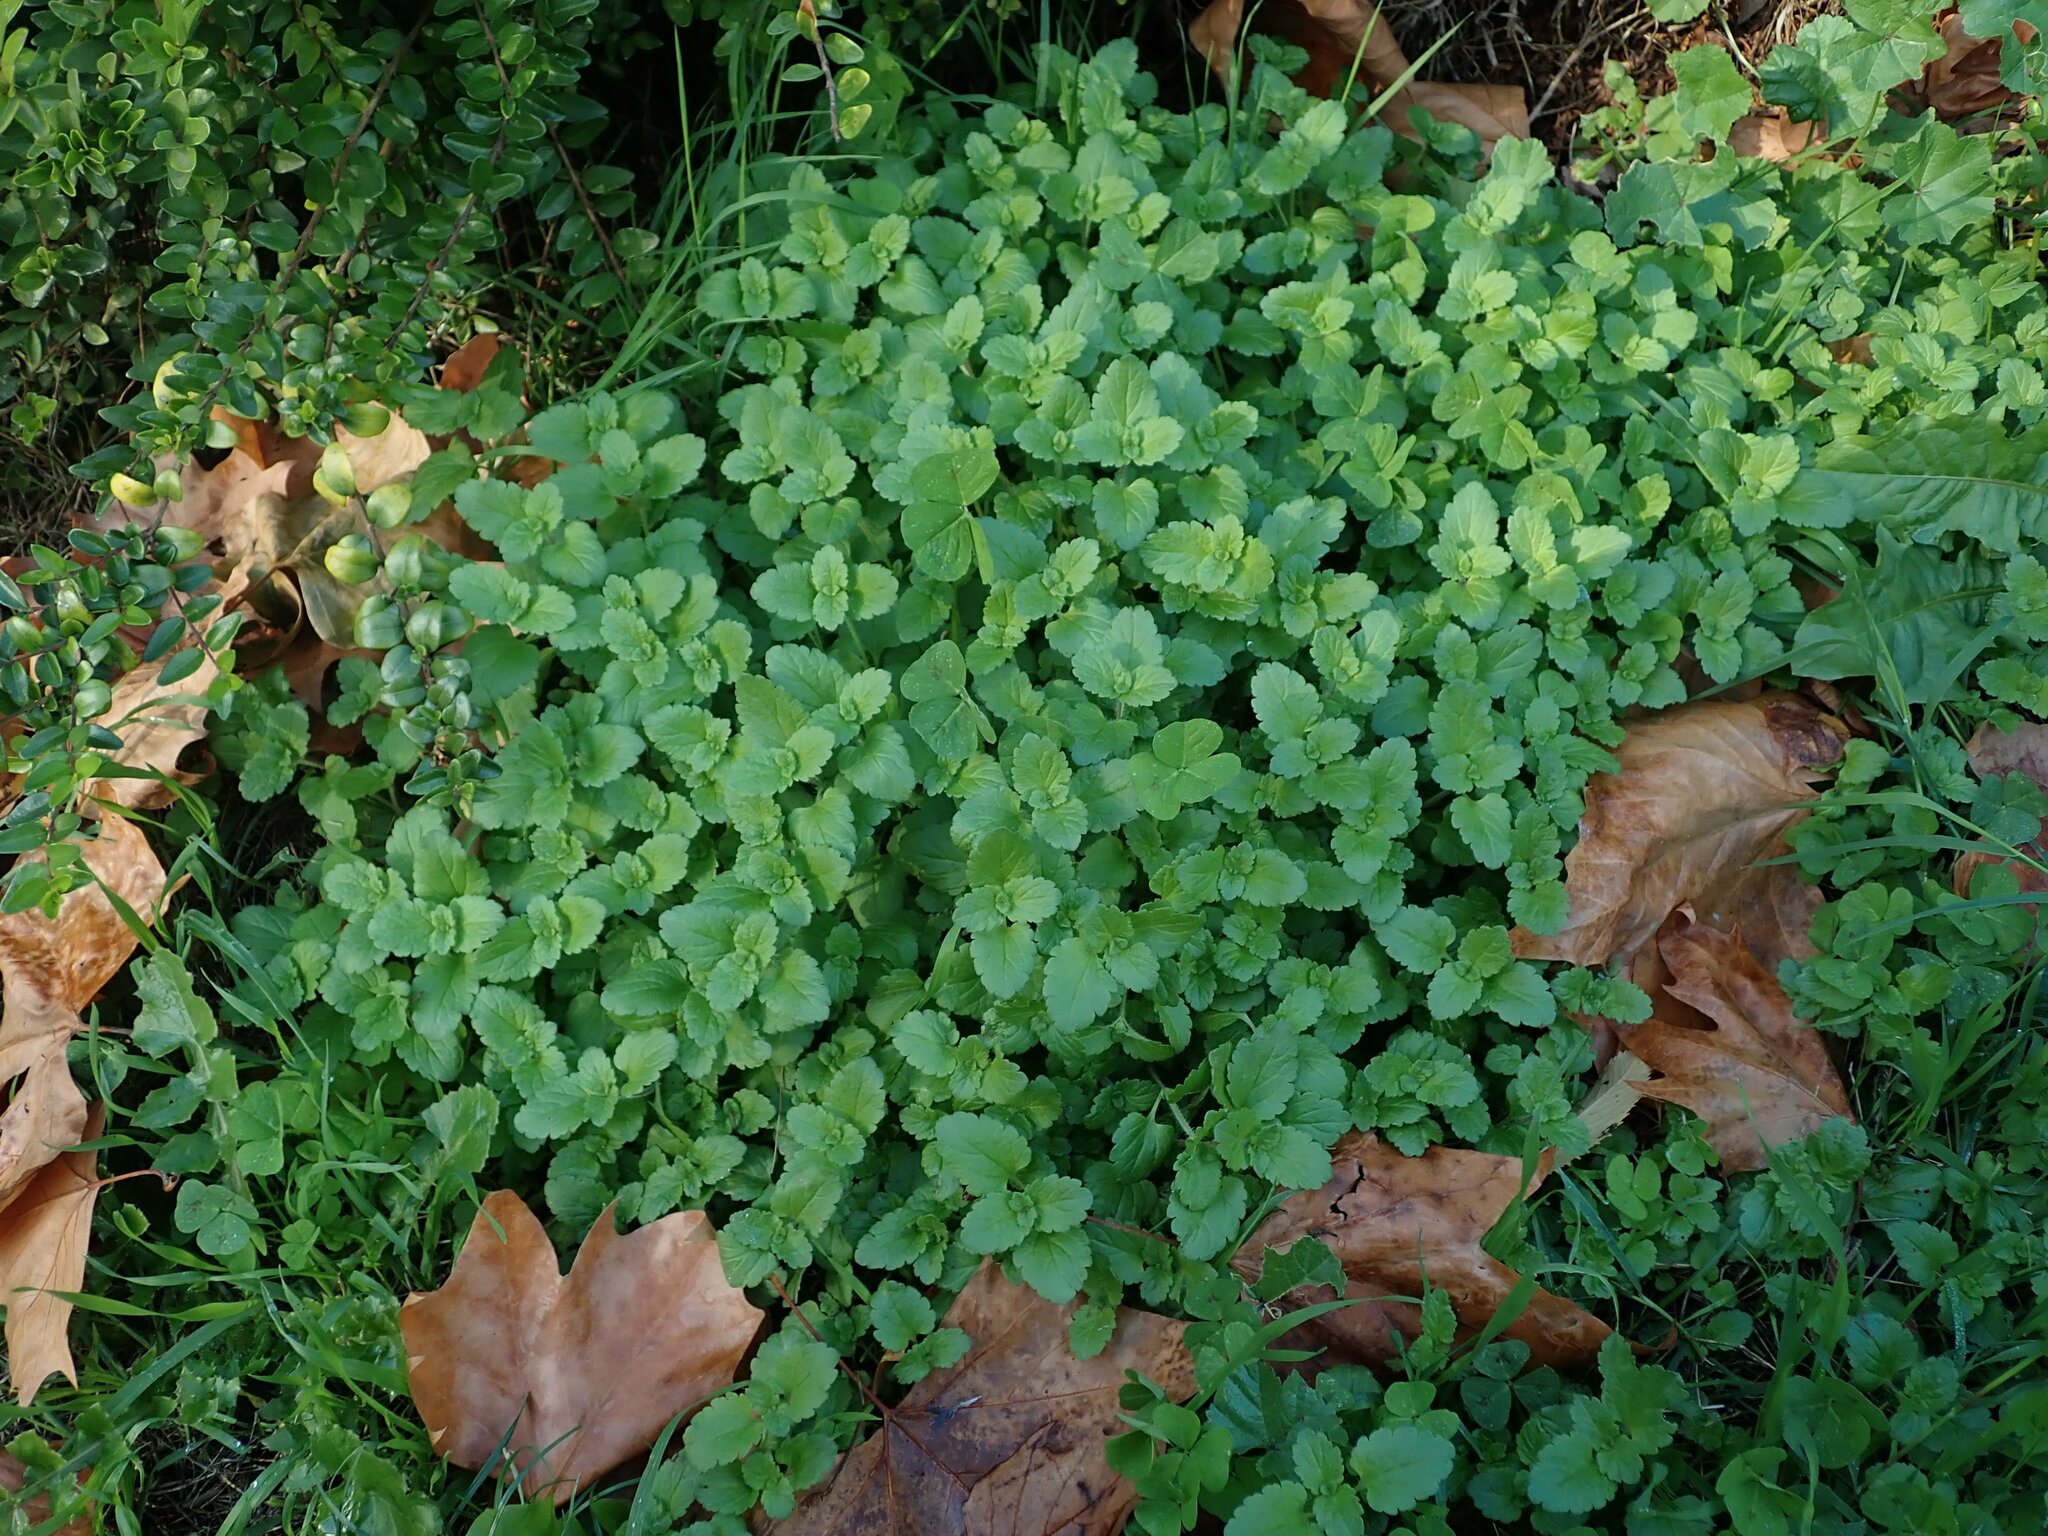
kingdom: Plantae
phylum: Tracheophyta
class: Magnoliopsida
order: Lamiales
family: Plantaginaceae
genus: Veronica
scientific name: Veronica chamaedrys
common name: Germander speedwell
